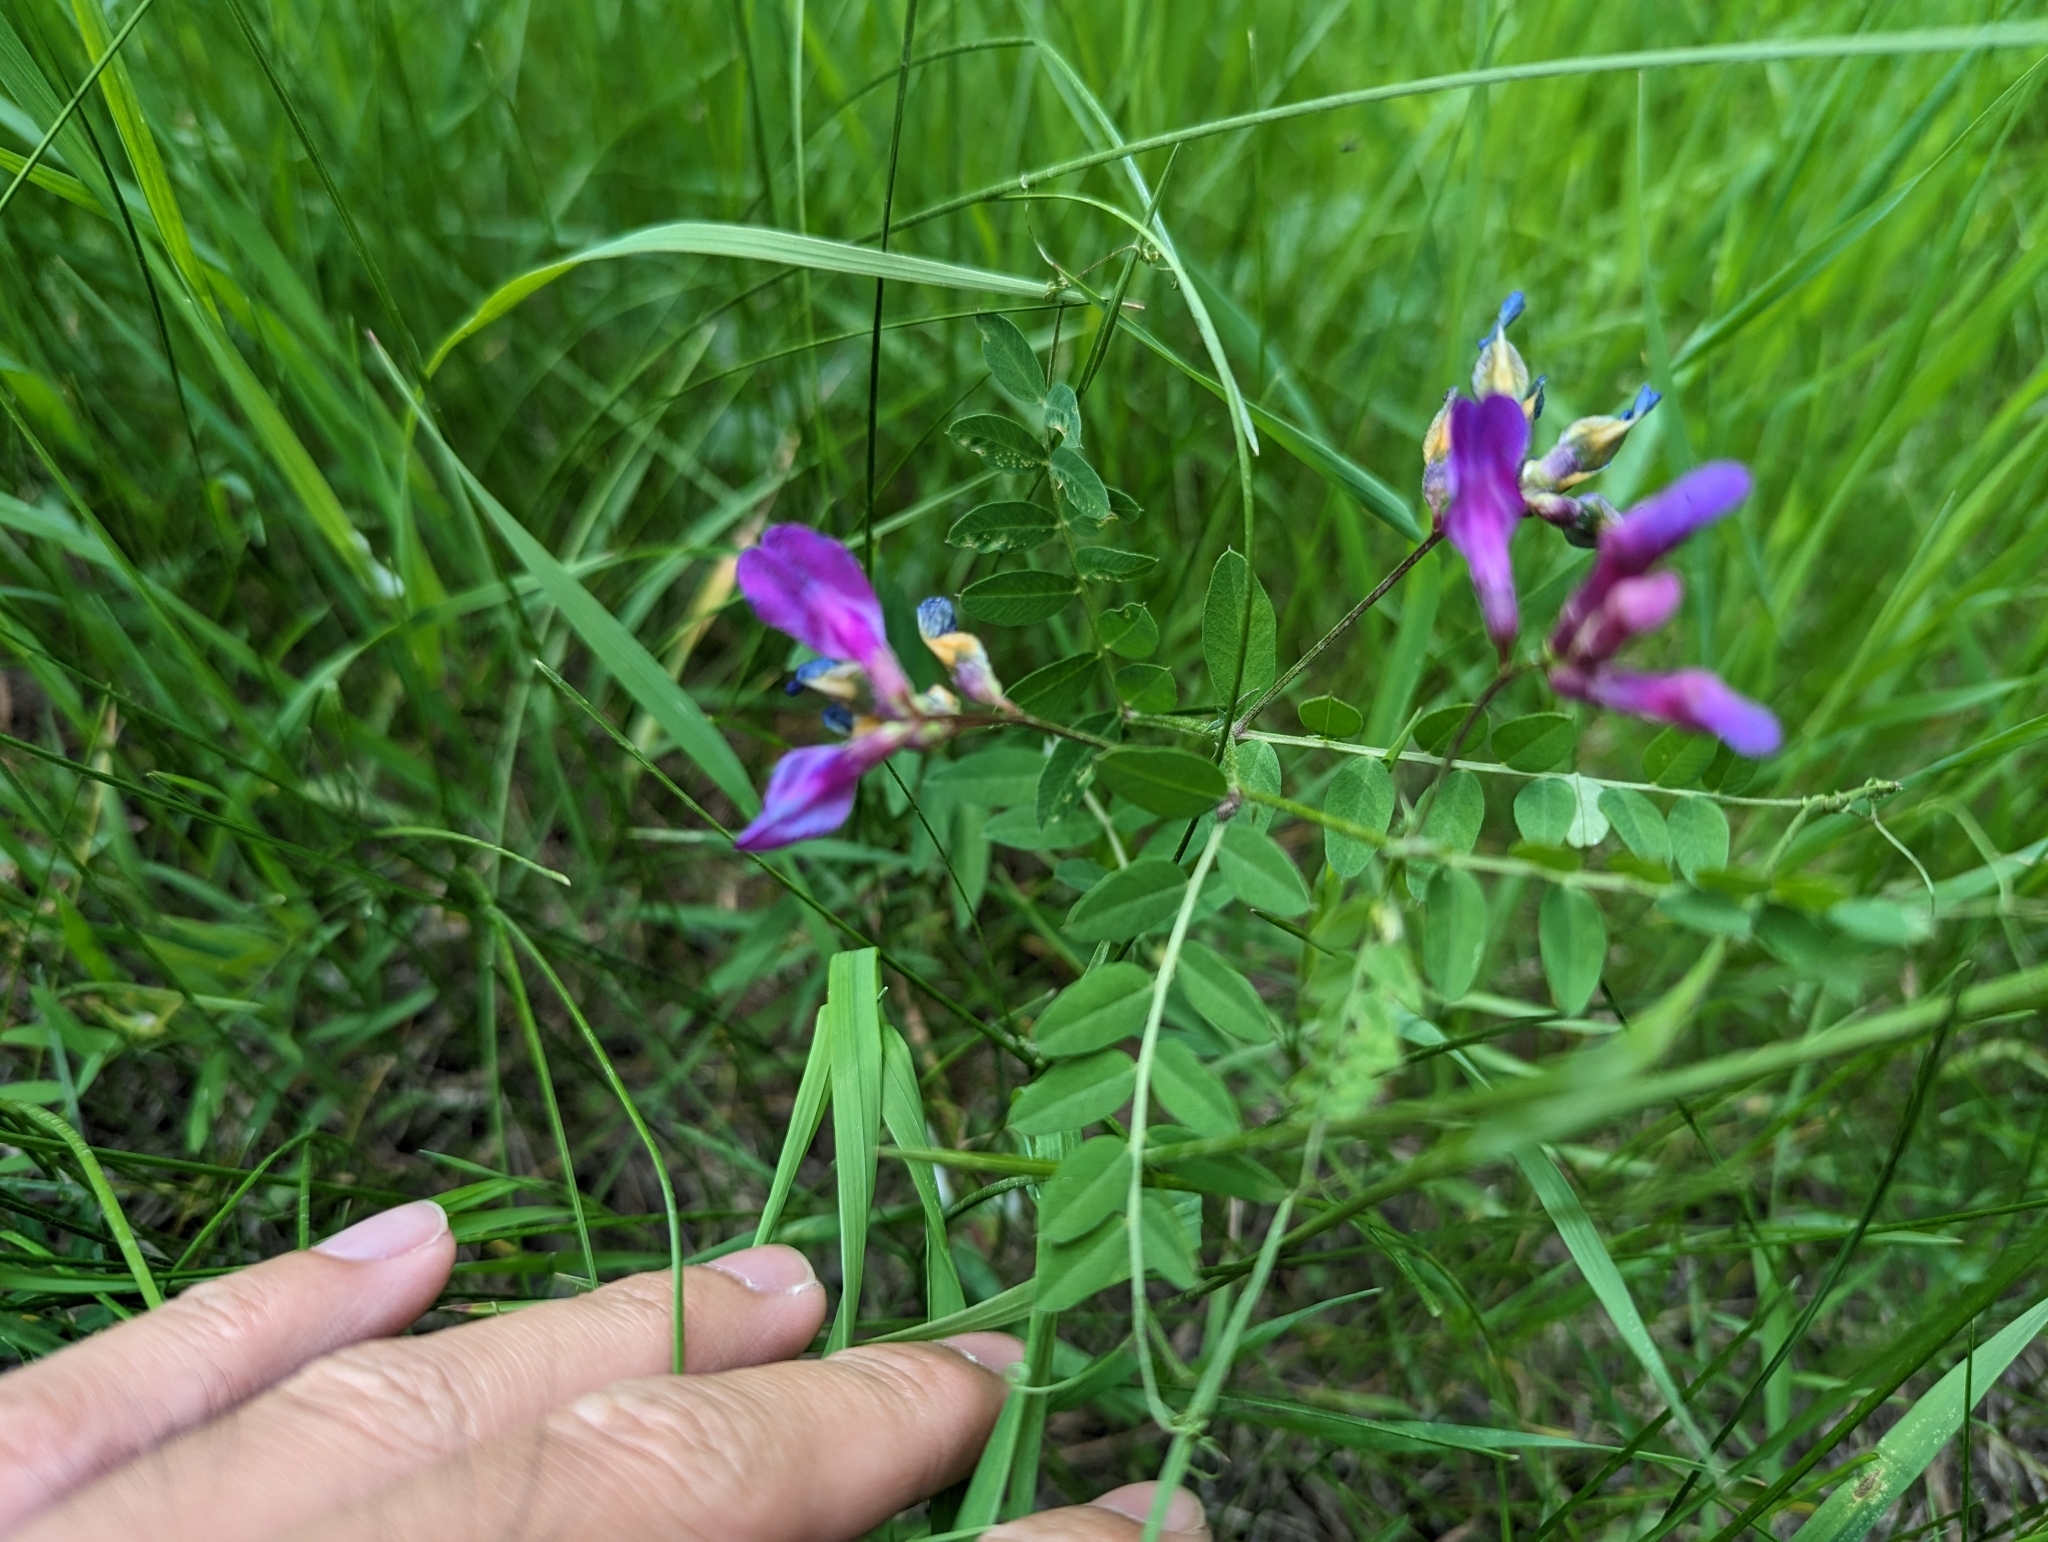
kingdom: Plantae
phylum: Tracheophyta
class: Magnoliopsida
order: Fabales
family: Fabaceae
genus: Vicia
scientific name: Vicia americana
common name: American vetch
